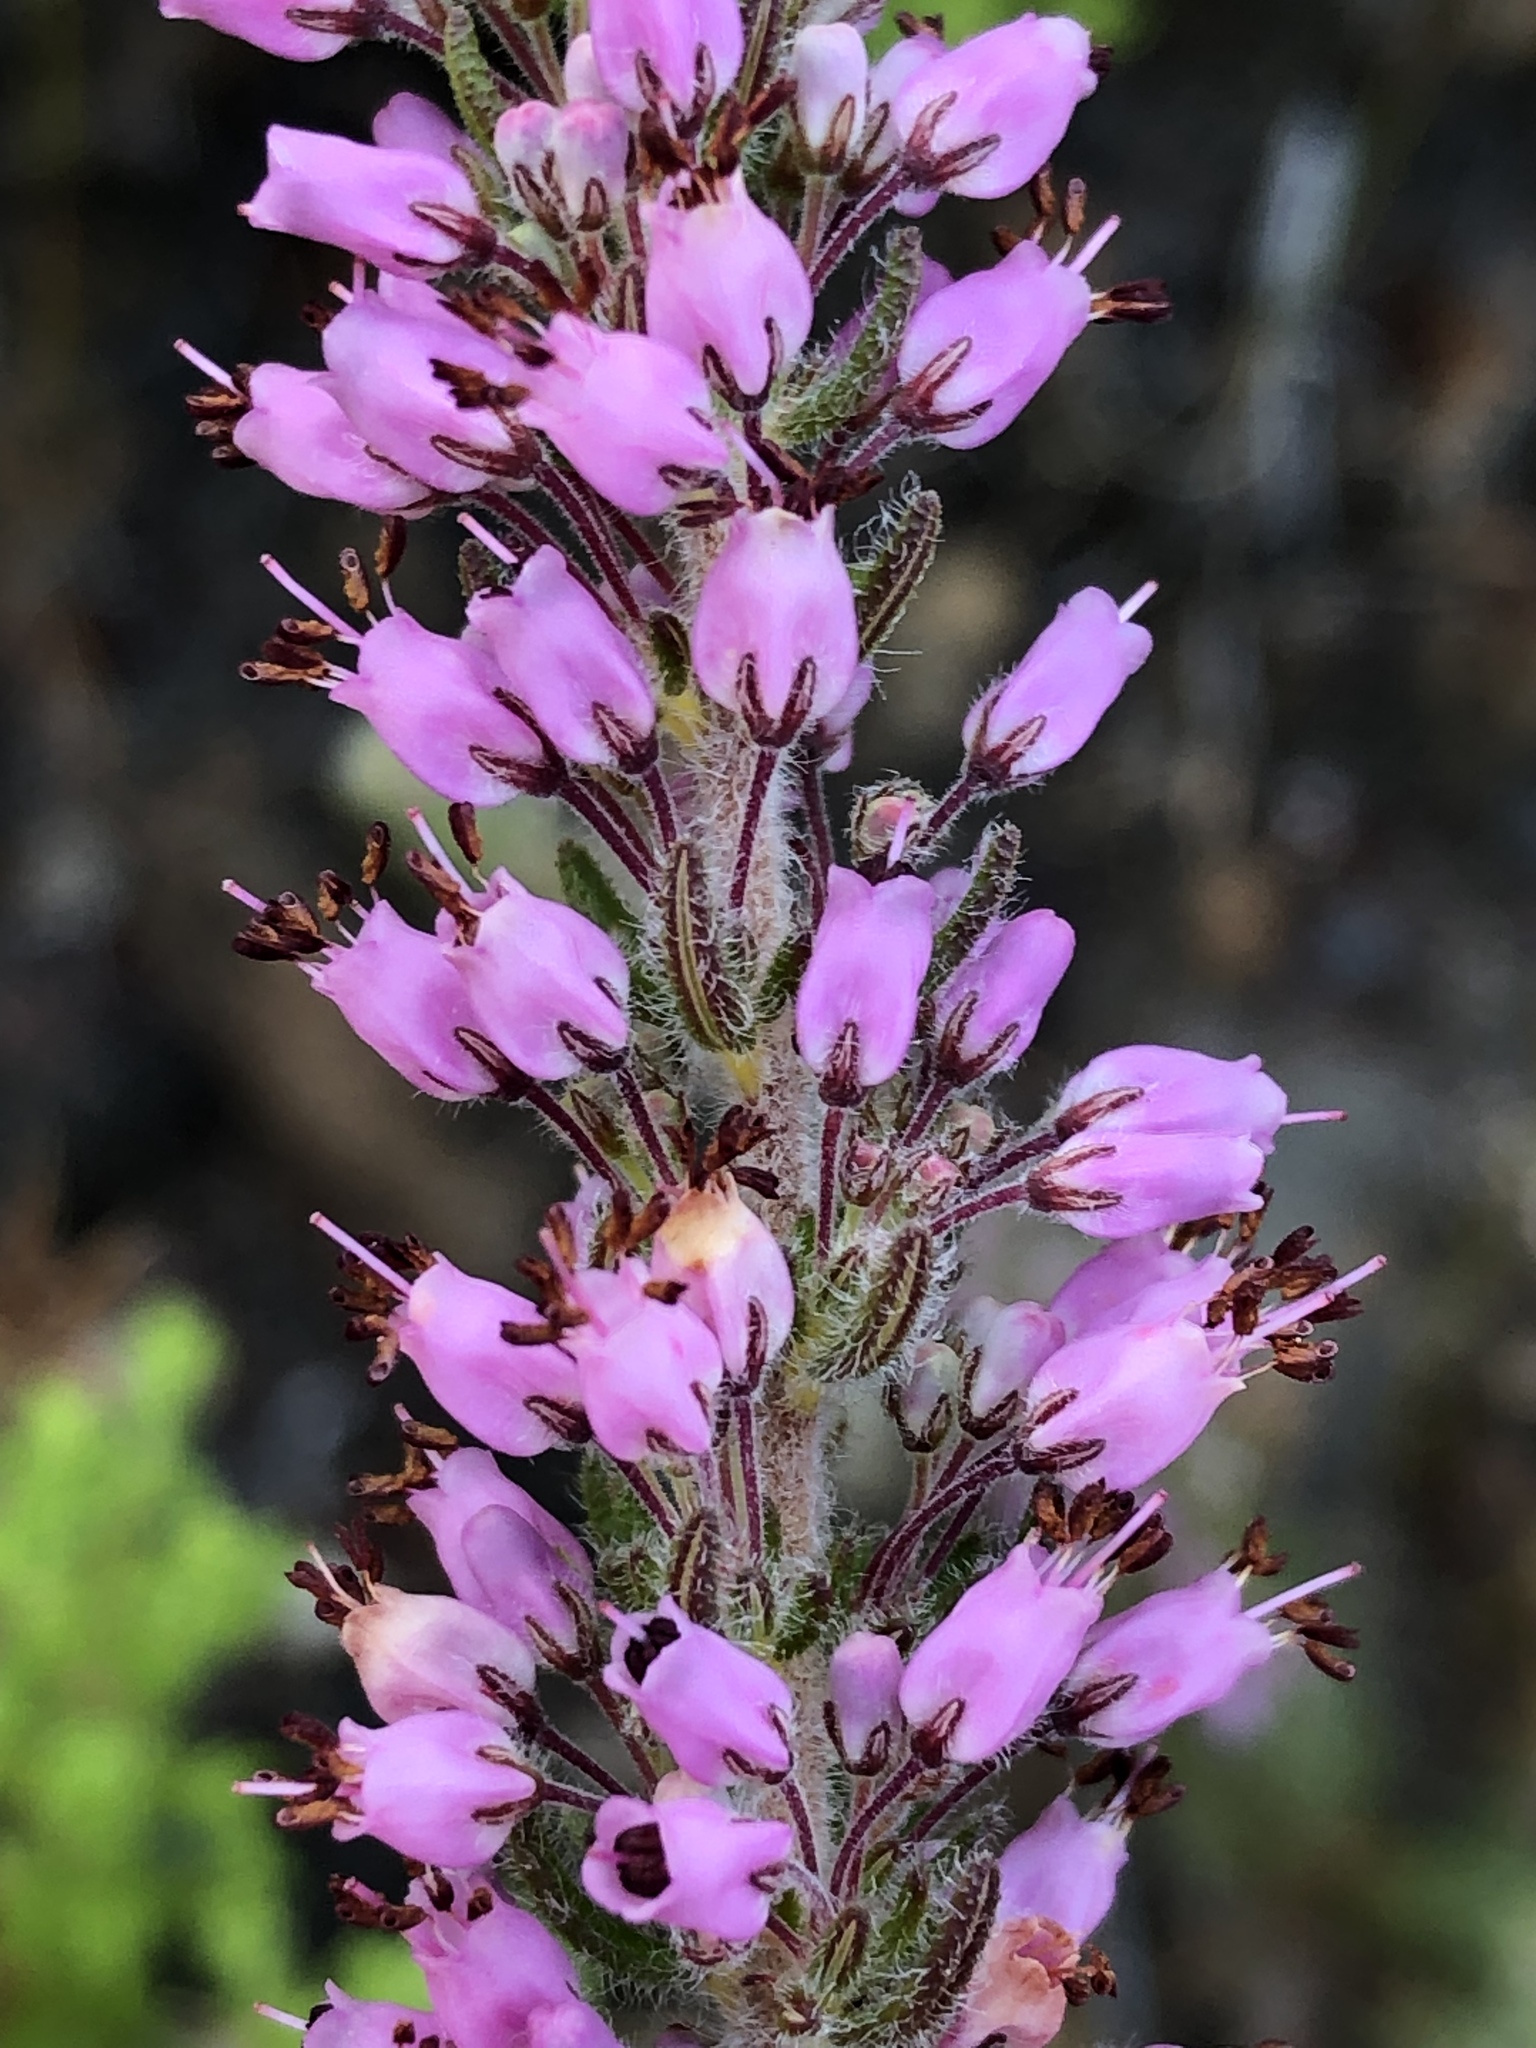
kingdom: Plantae
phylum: Tracheophyta
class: Magnoliopsida
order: Ericales
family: Ericaceae
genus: Erica
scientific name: Erica nudiflora
